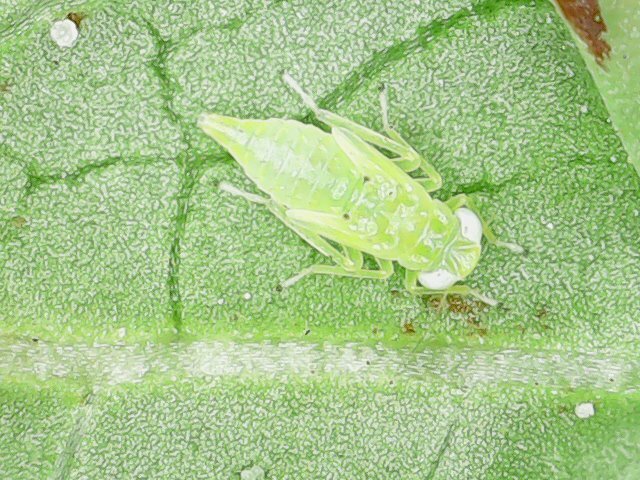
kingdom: Animalia
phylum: Arthropoda
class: Insecta
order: Hemiptera
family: Cicadellidae
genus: Amrasca
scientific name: Amrasca biguttula
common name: Indian cotton jassid
